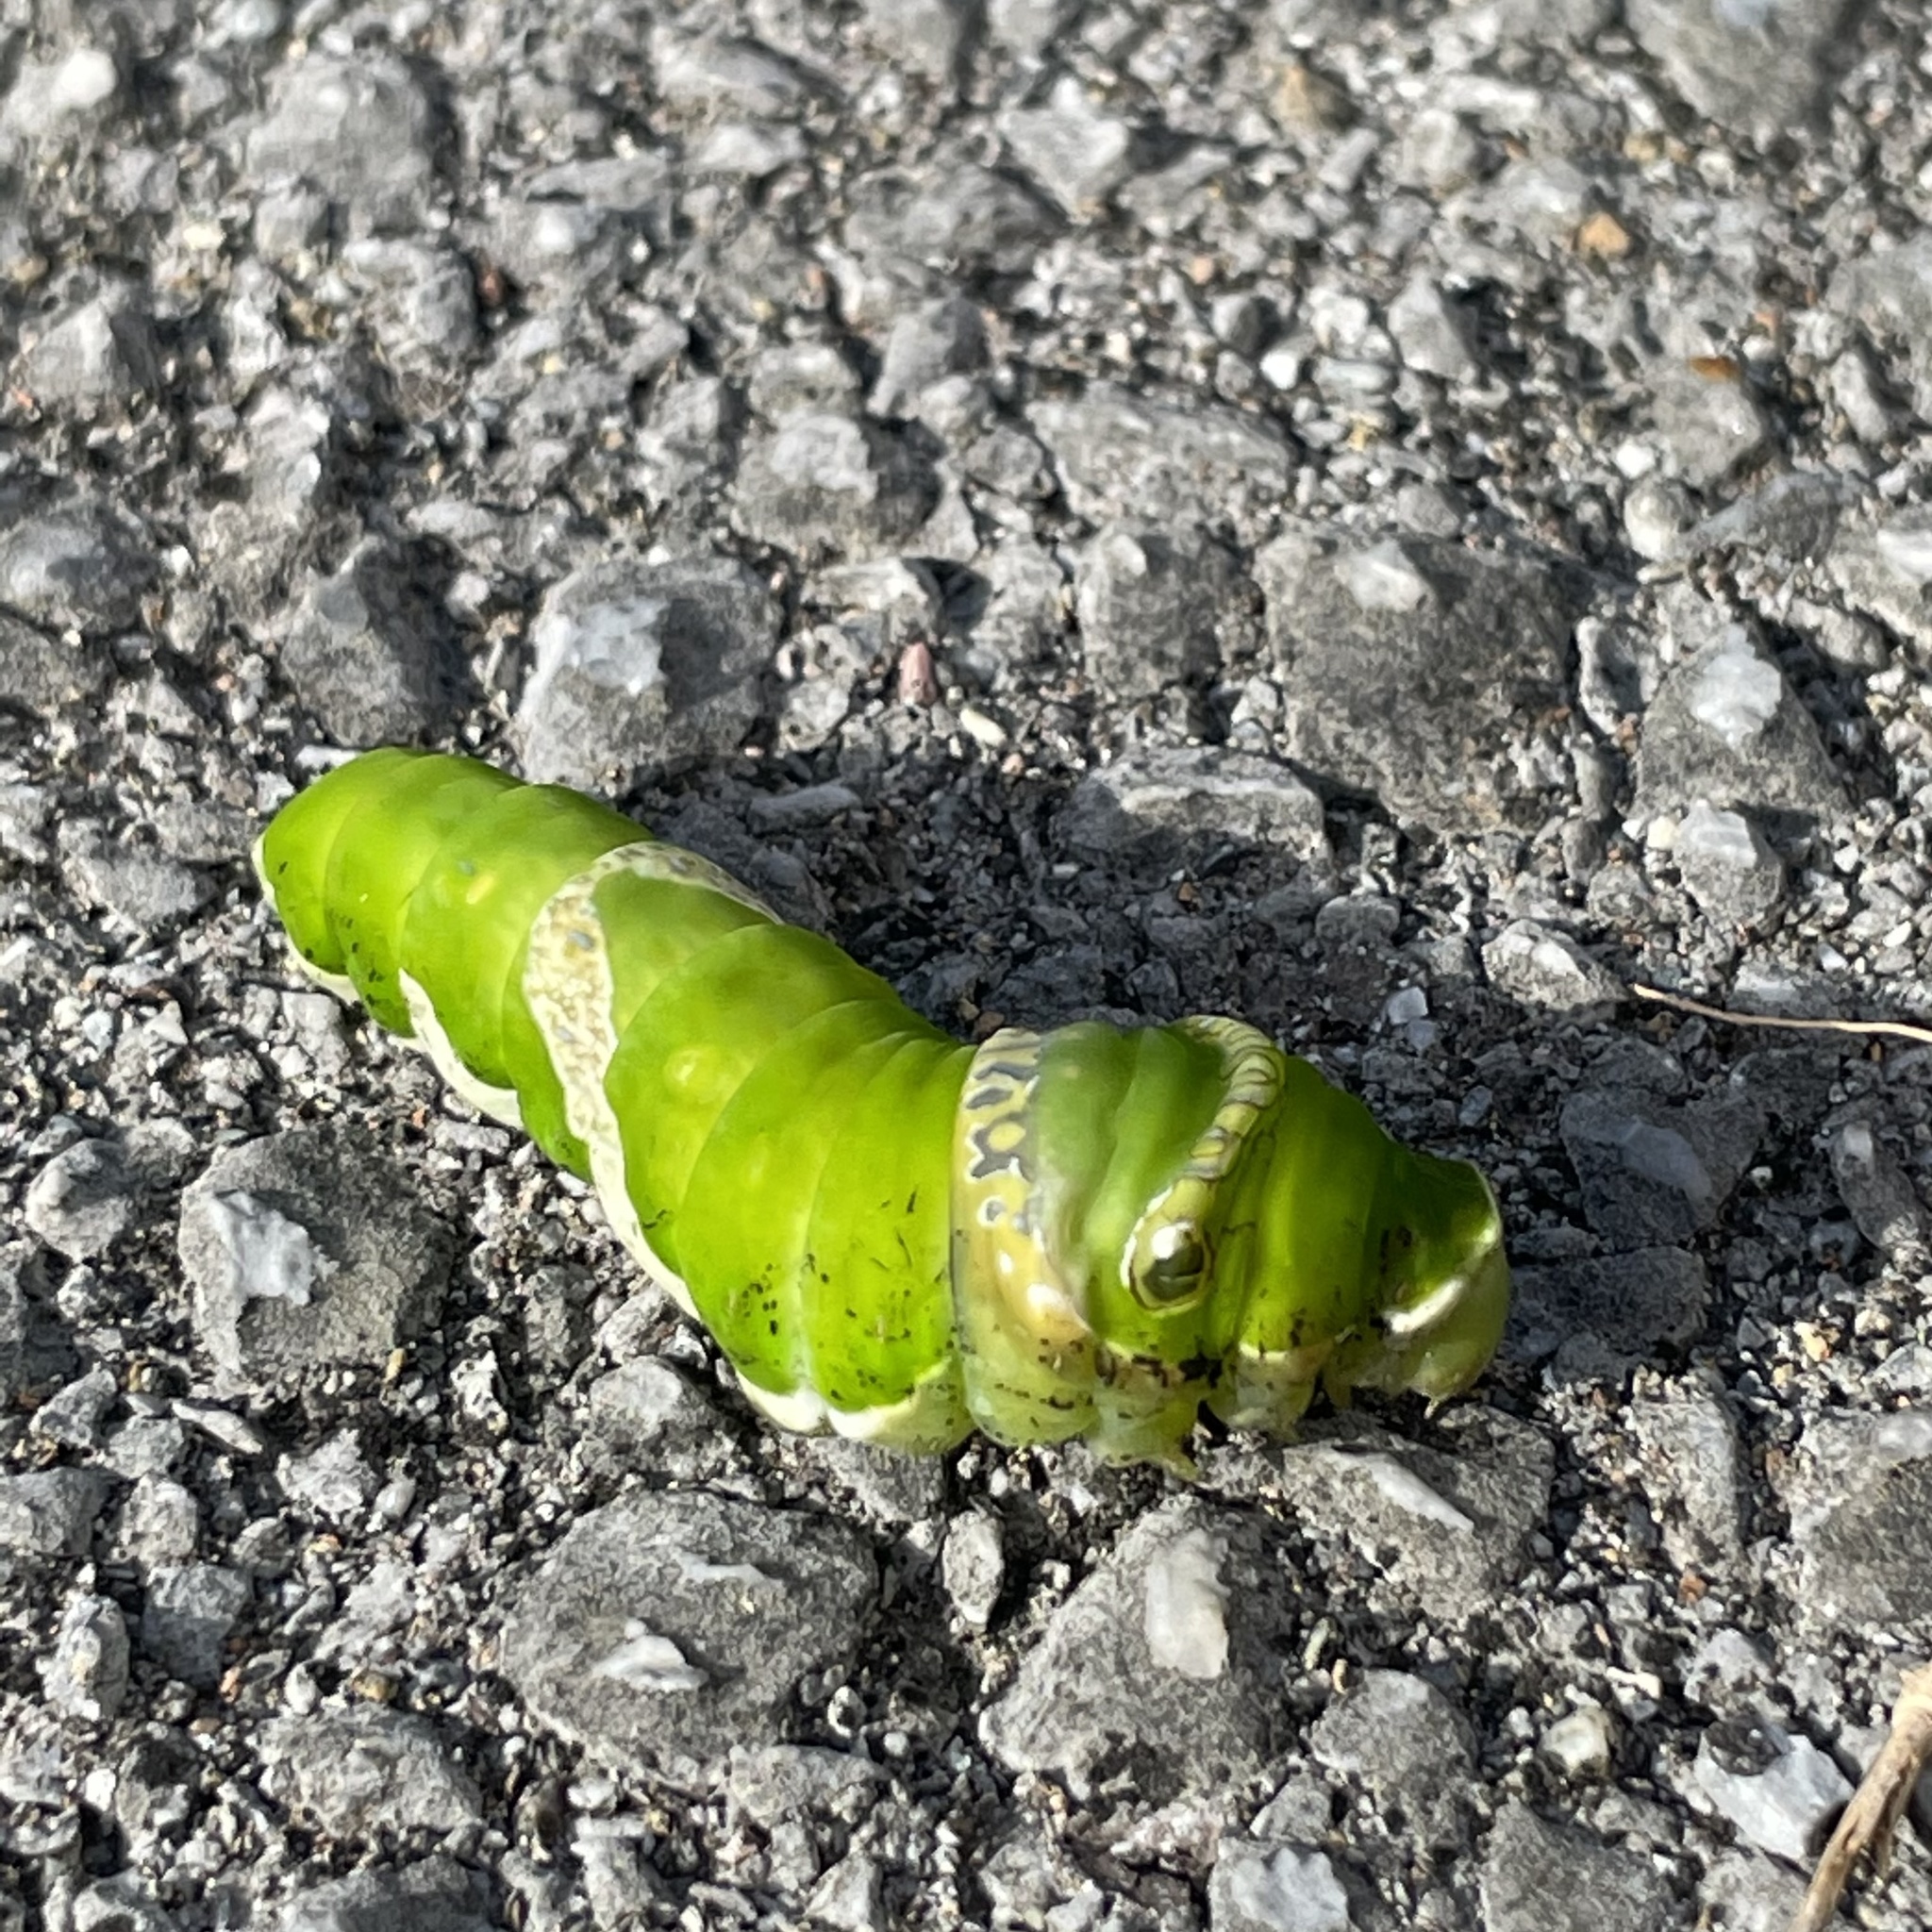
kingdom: Animalia
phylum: Arthropoda
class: Insecta
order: Lepidoptera
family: Papilionidae
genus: Papilio
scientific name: Papilio memnon
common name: Great mormon
